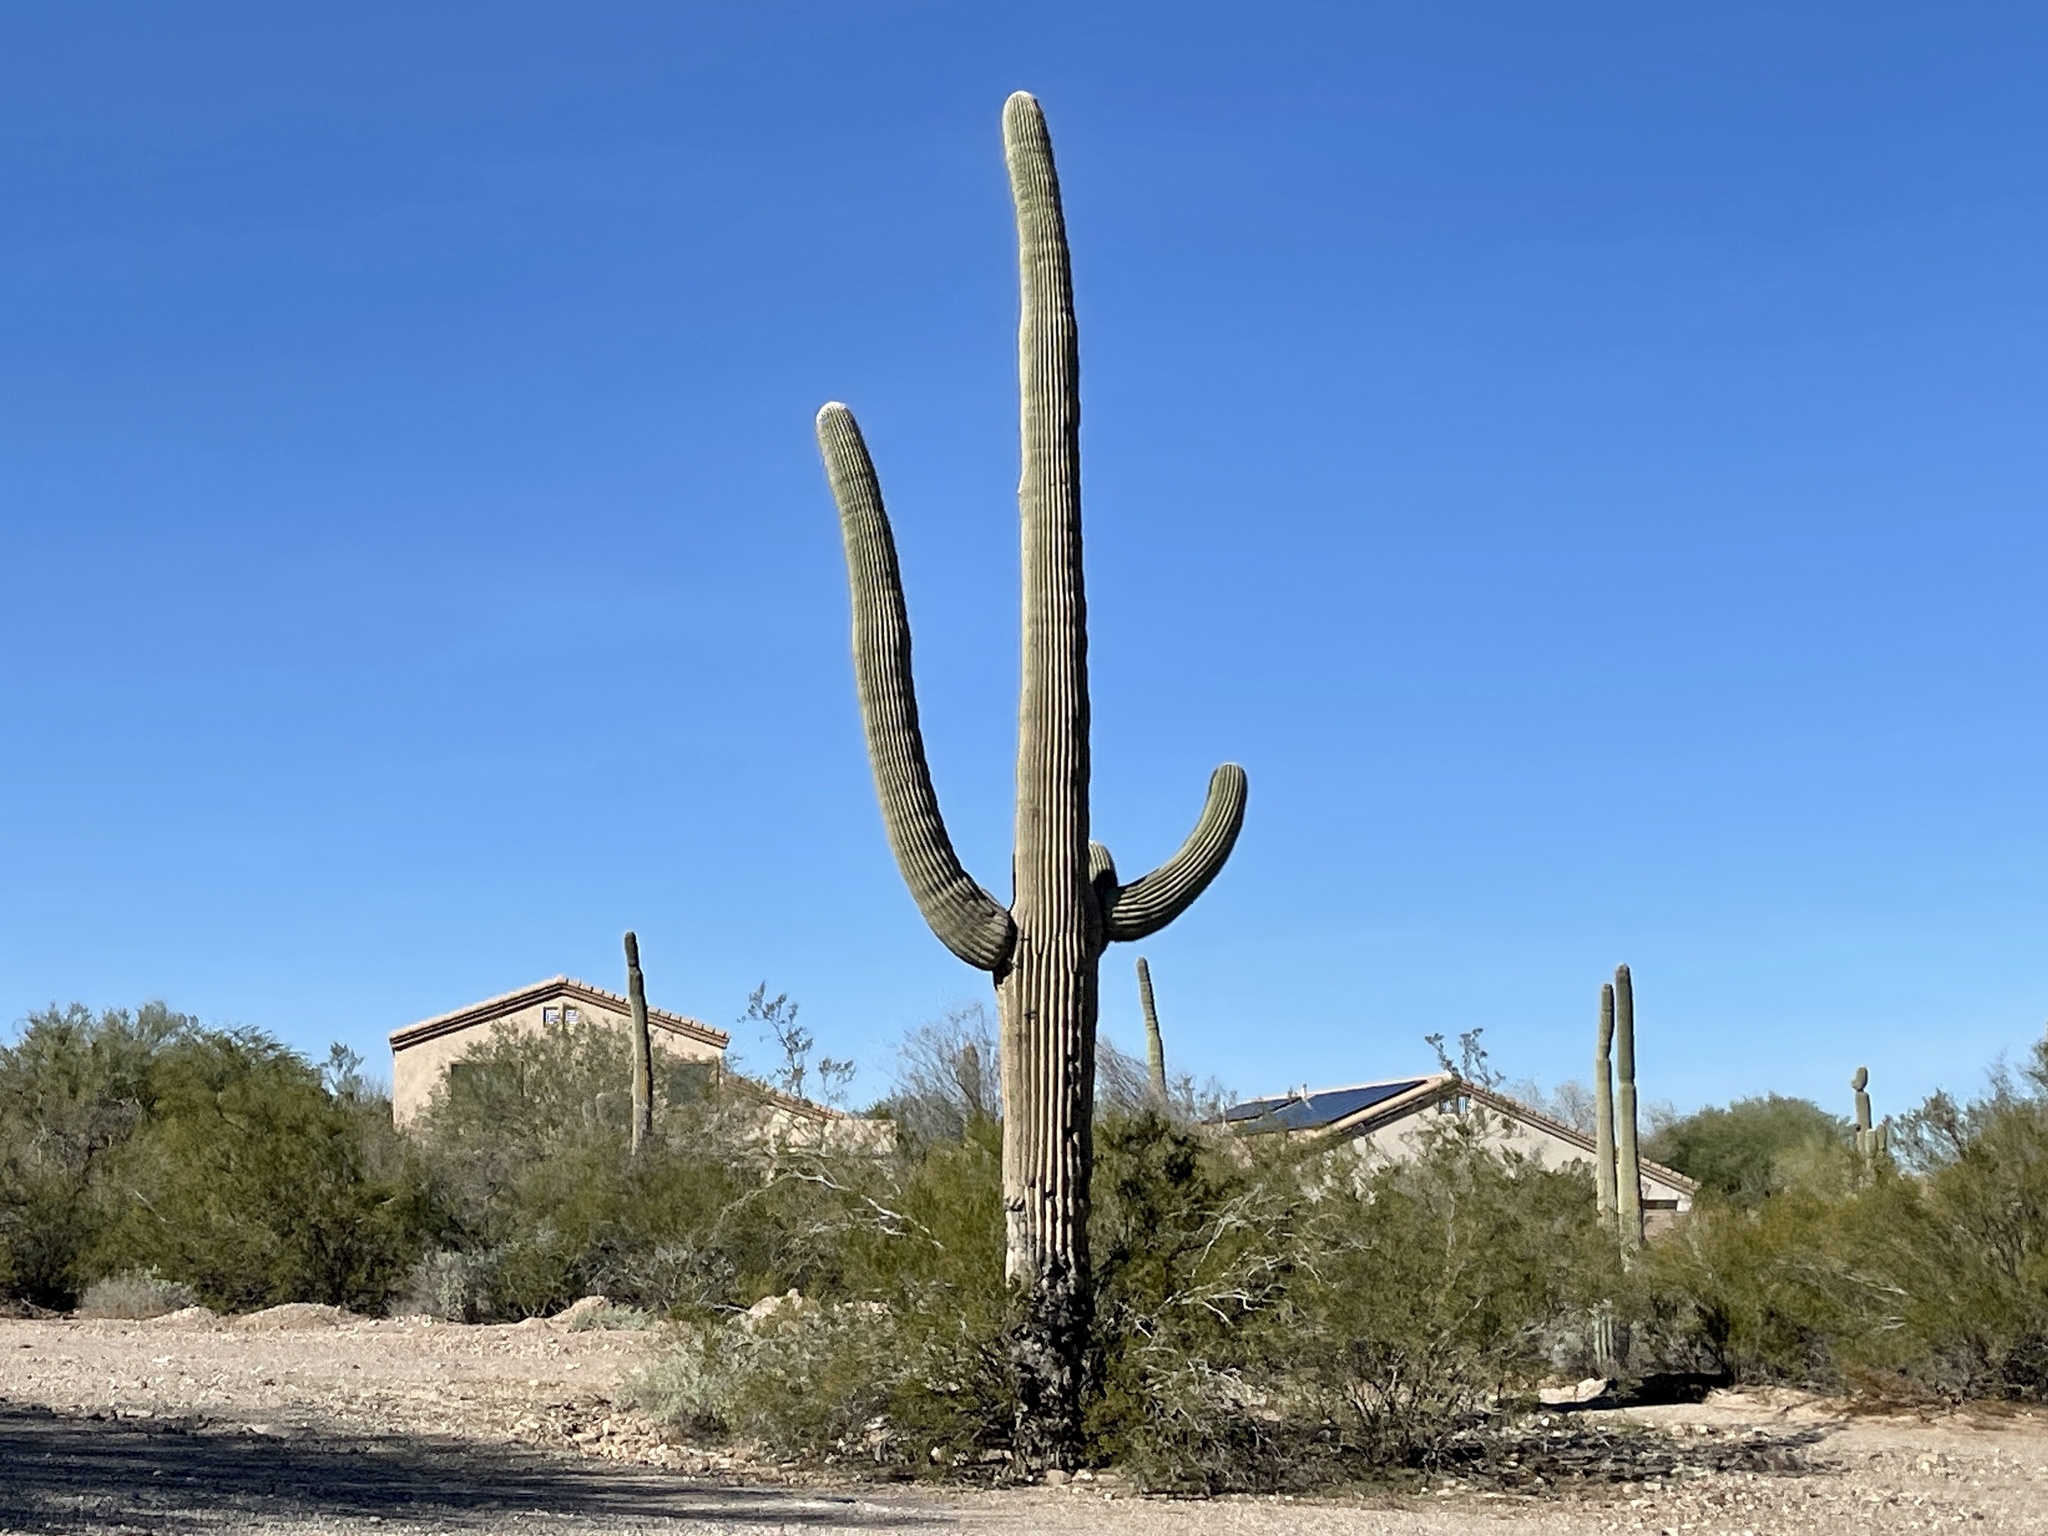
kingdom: Plantae
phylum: Tracheophyta
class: Magnoliopsida
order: Caryophyllales
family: Cactaceae
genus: Carnegiea
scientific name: Carnegiea gigantea
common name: Saguaro
